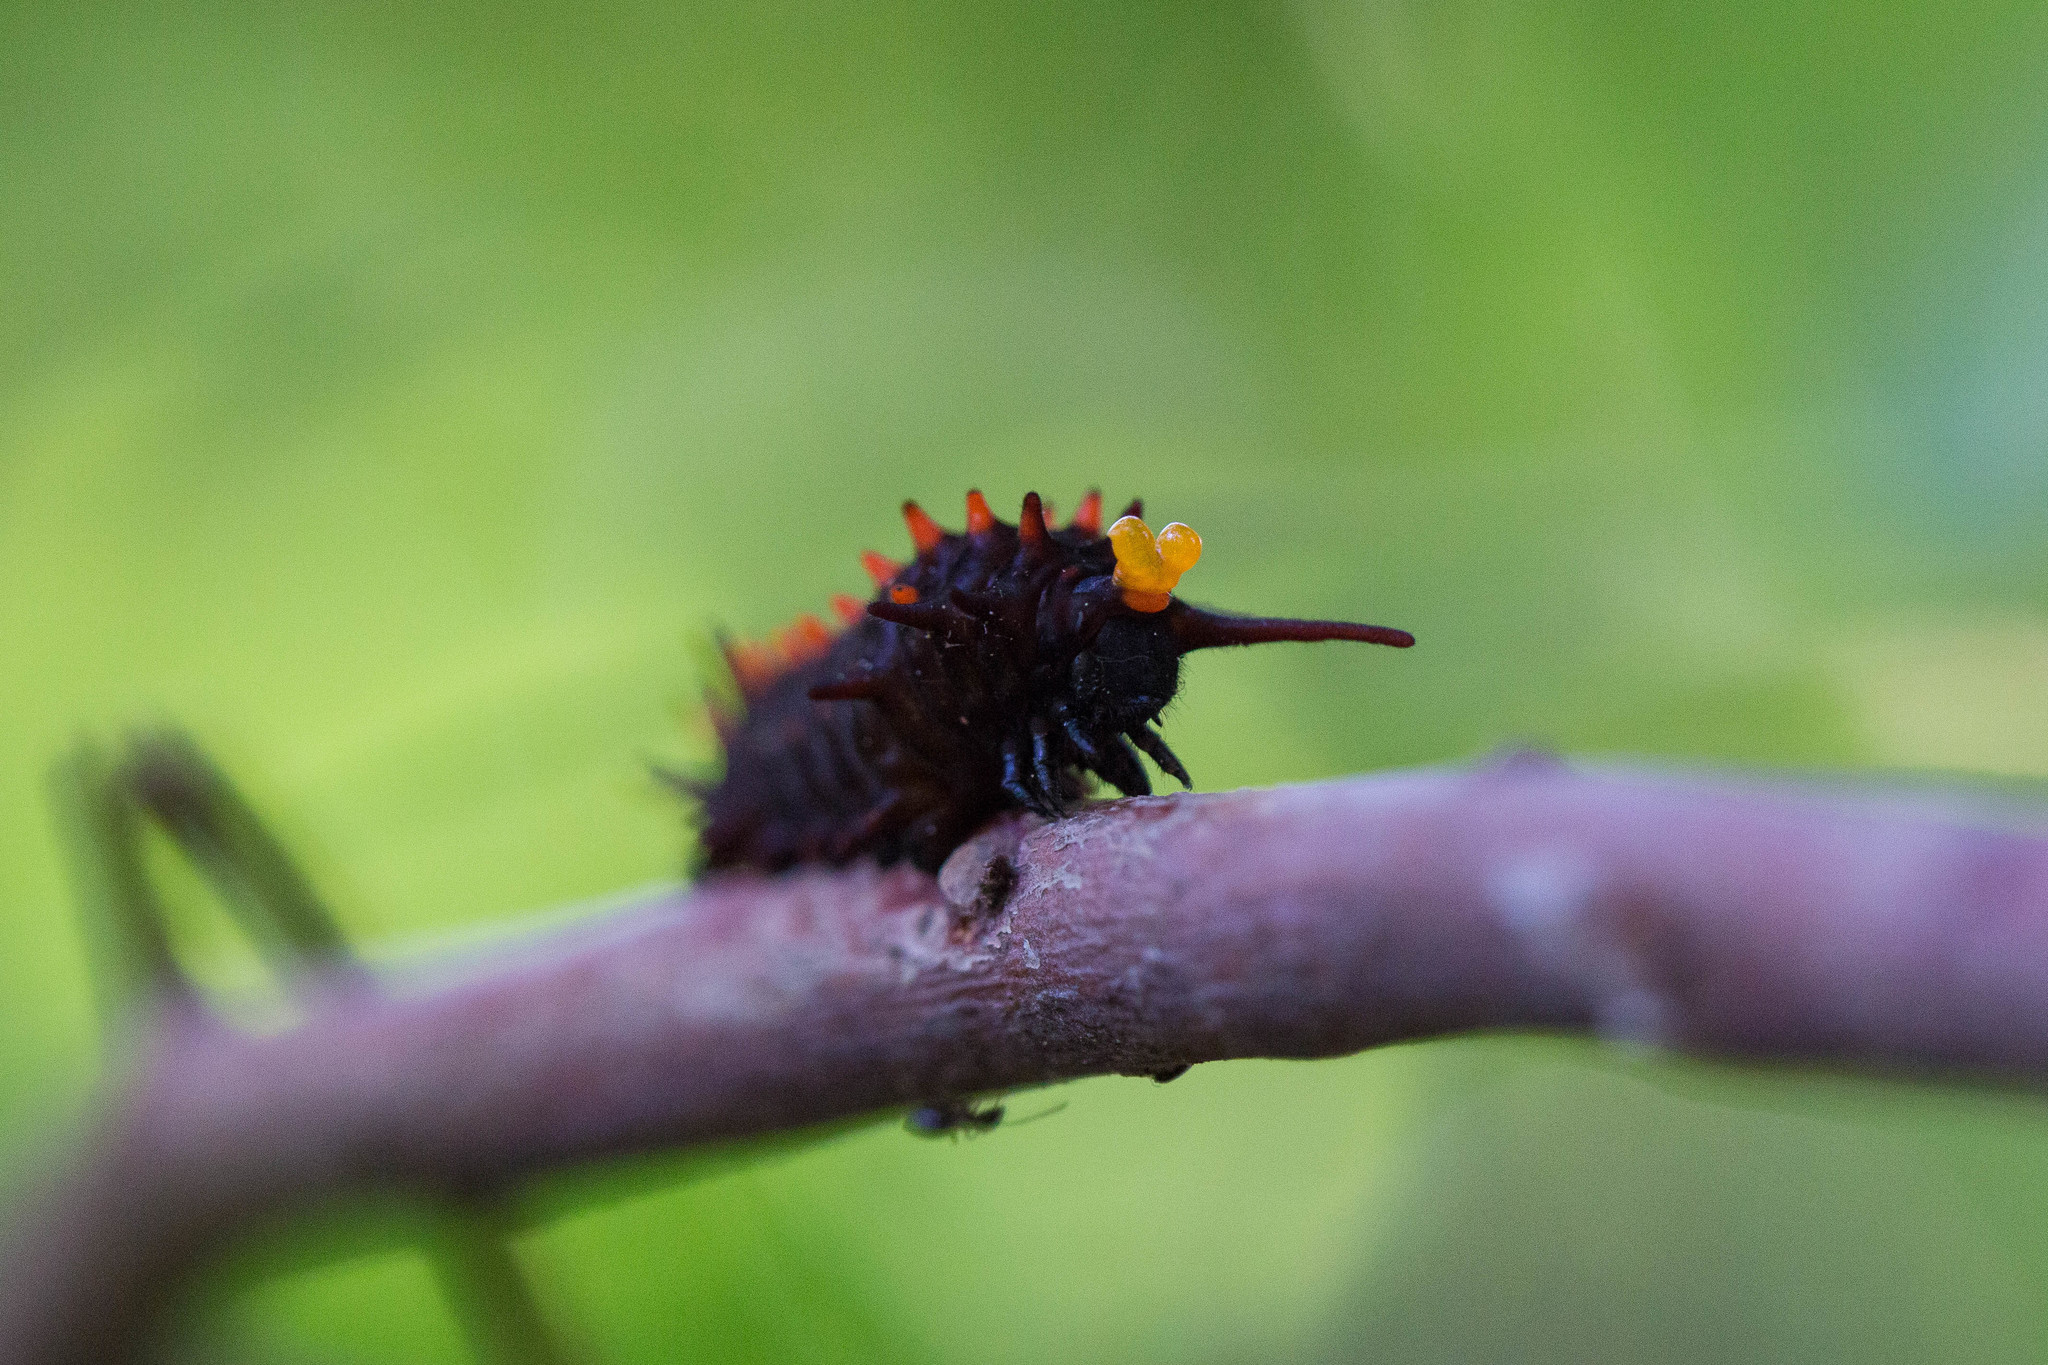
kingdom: Animalia
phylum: Arthropoda
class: Insecta
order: Lepidoptera
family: Papilionidae
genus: Battus
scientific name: Battus philenor
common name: Pipevine swallowtail
